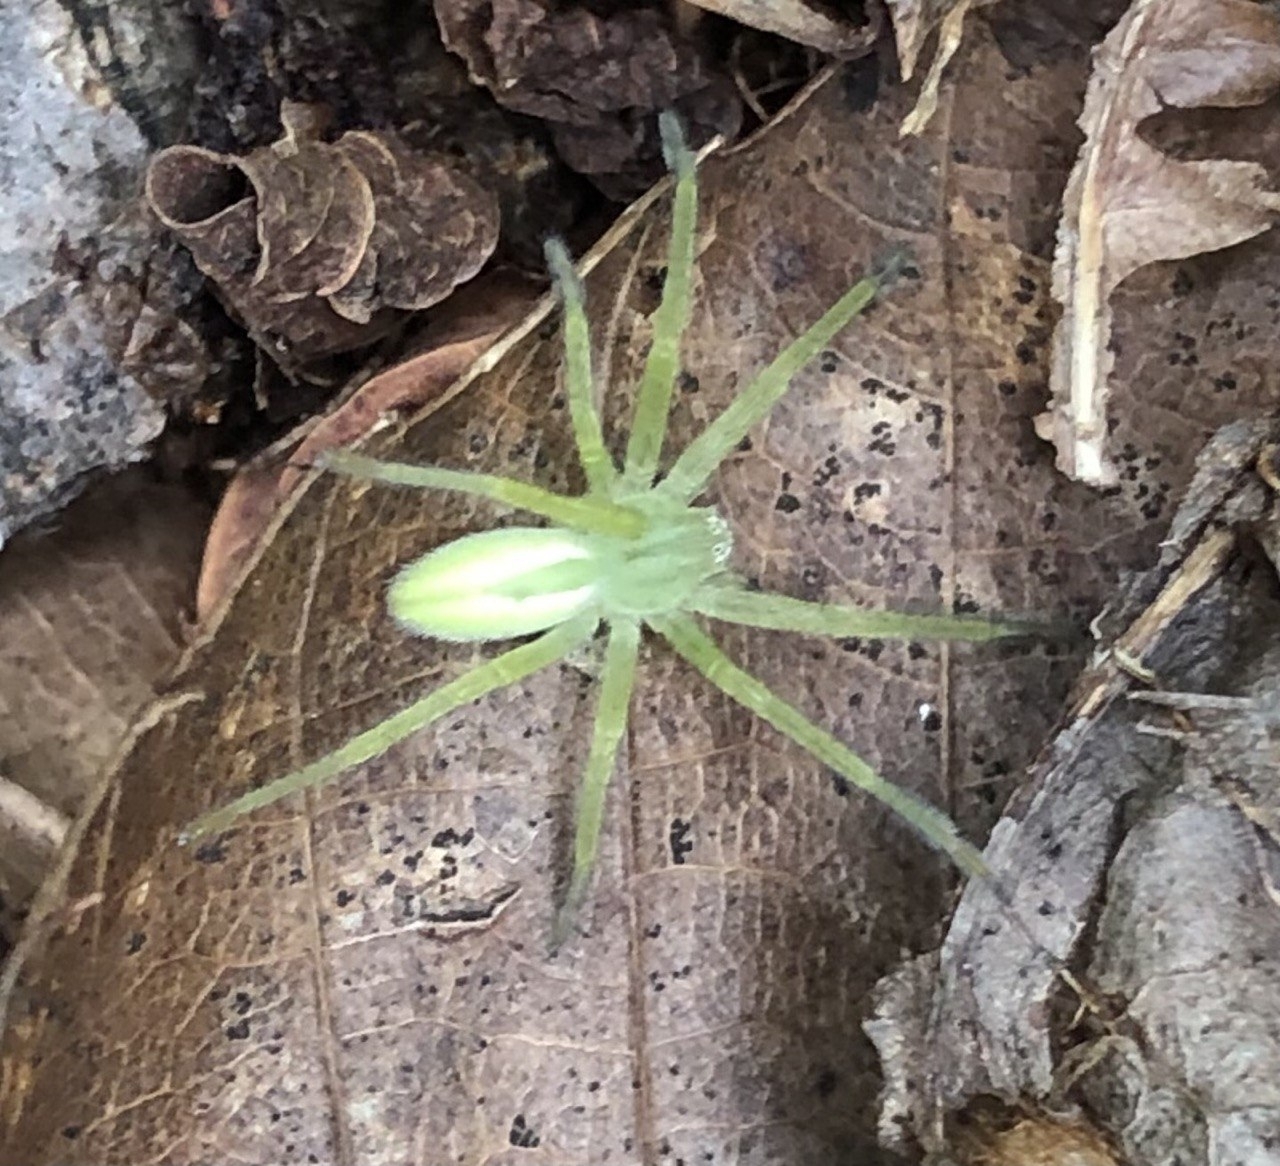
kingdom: Animalia
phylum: Arthropoda
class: Arachnida
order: Araneae
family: Sparassidae
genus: Micrommata
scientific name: Micrommata virescens
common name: Green spider
